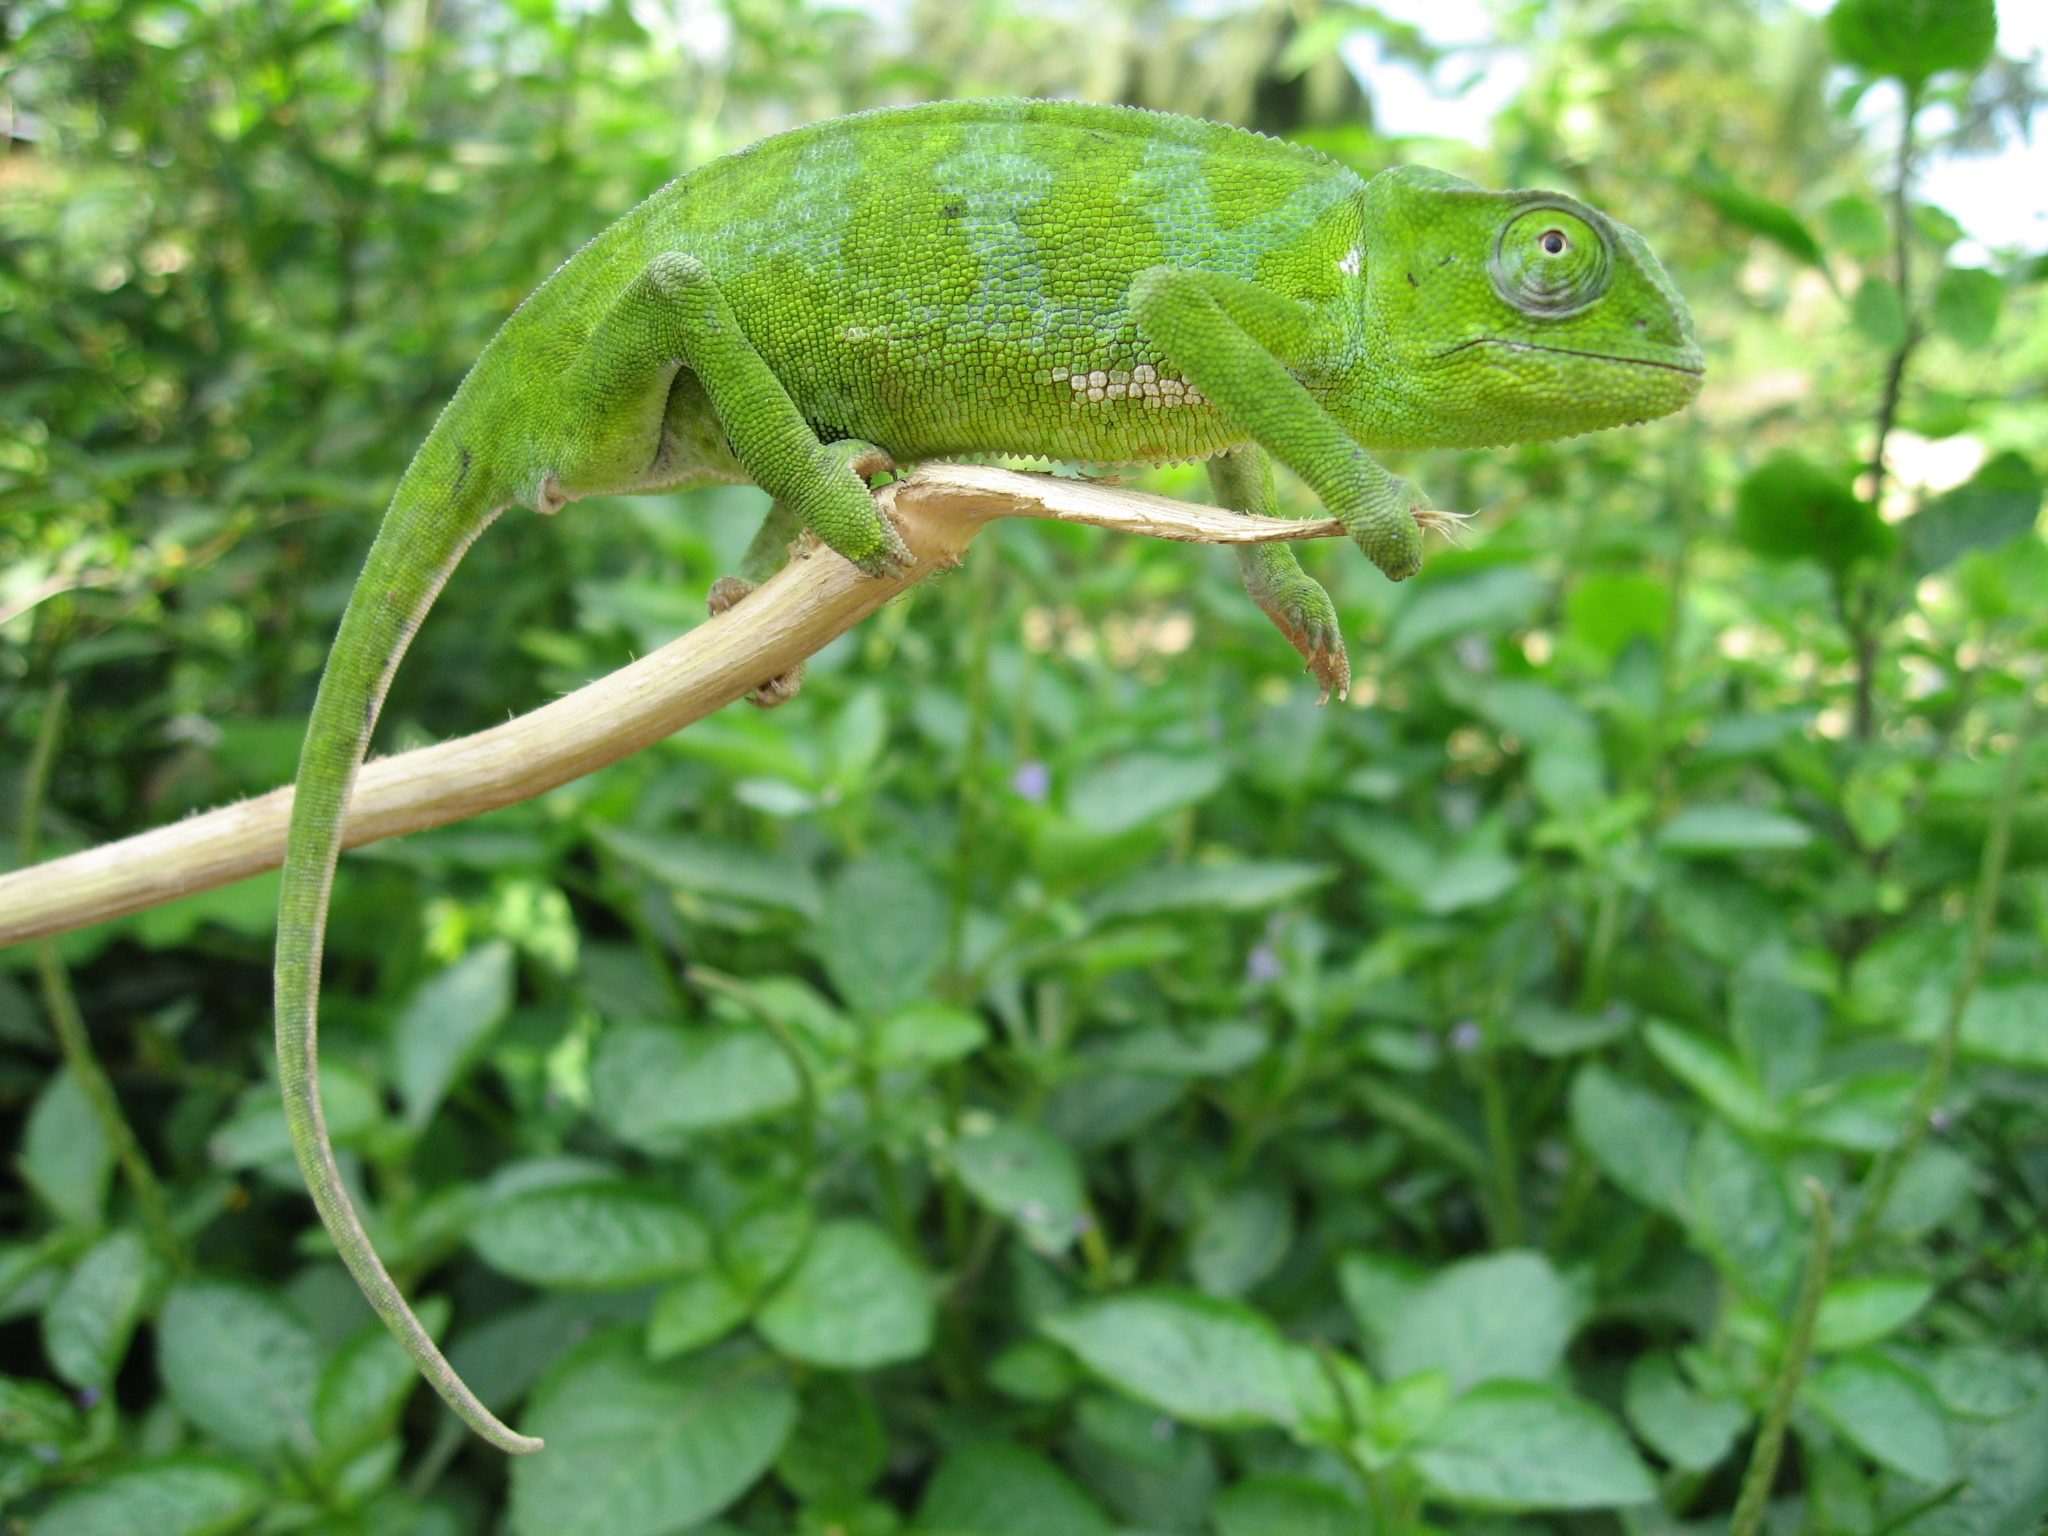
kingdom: Animalia
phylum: Chordata
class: Squamata
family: Chamaeleonidae
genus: Chamaeleo
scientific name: Chamaeleo gracilis
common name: Graceful chameleon
